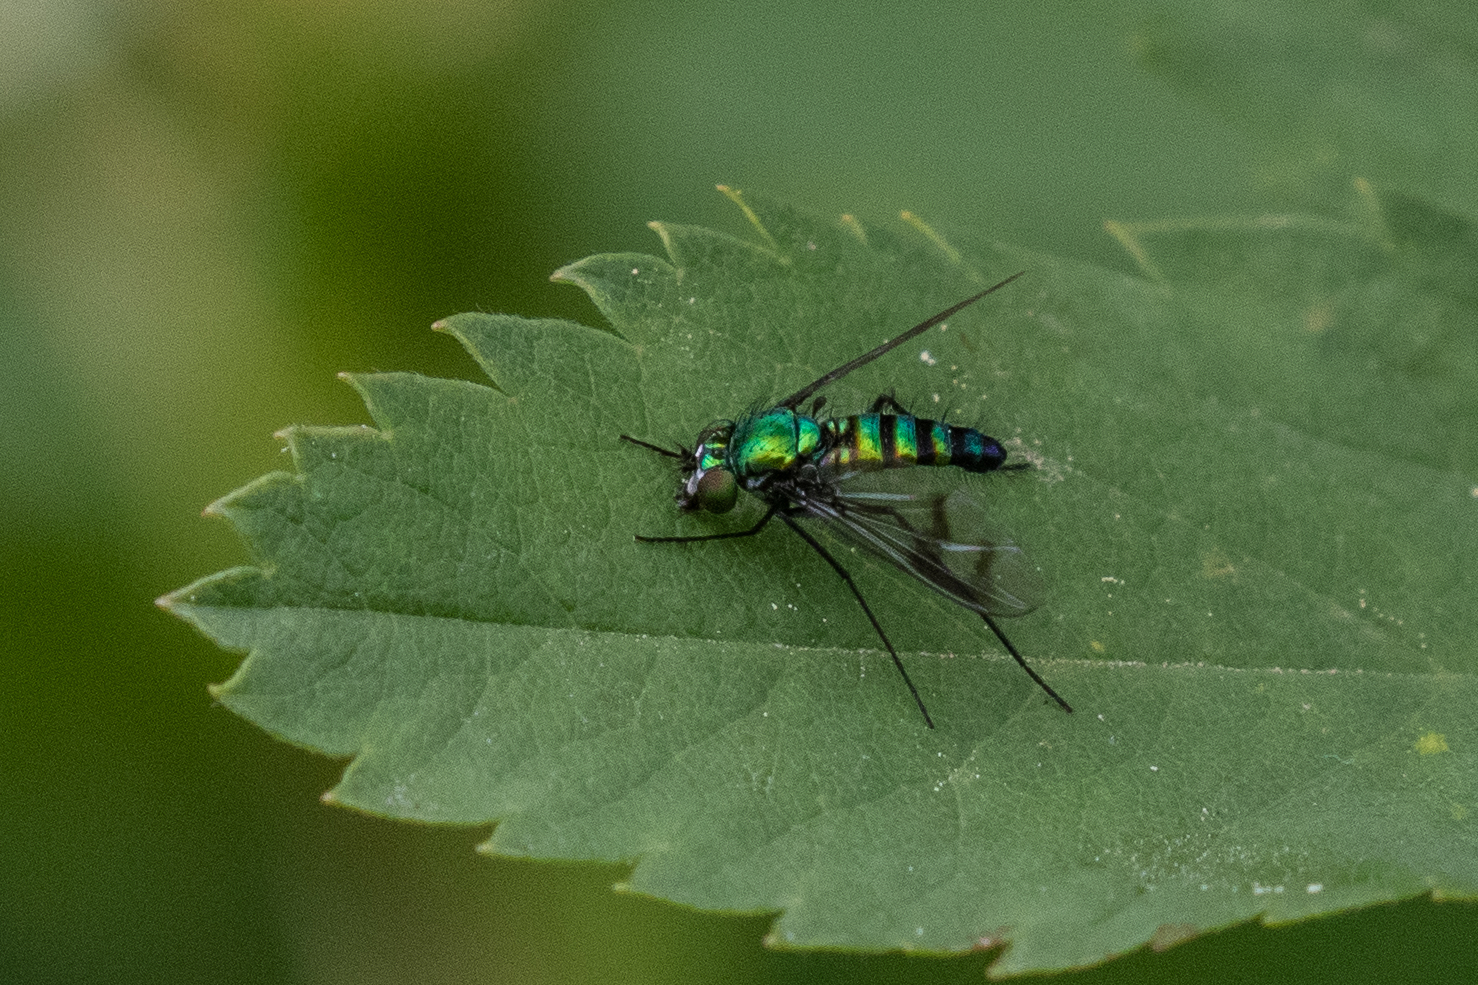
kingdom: Animalia
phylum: Arthropoda
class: Insecta
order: Diptera
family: Dolichopodidae
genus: Condylostylus
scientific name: Condylostylus occidentalis
